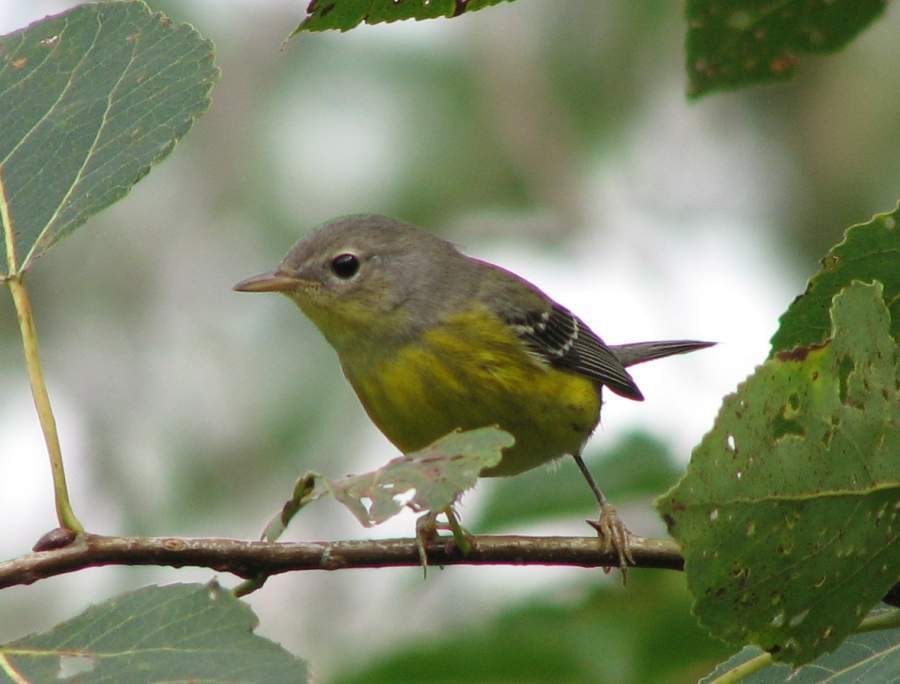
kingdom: Animalia
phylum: Chordata
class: Aves
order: Passeriformes
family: Parulidae
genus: Setophaga
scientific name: Setophaga magnolia
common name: Magnolia warbler
